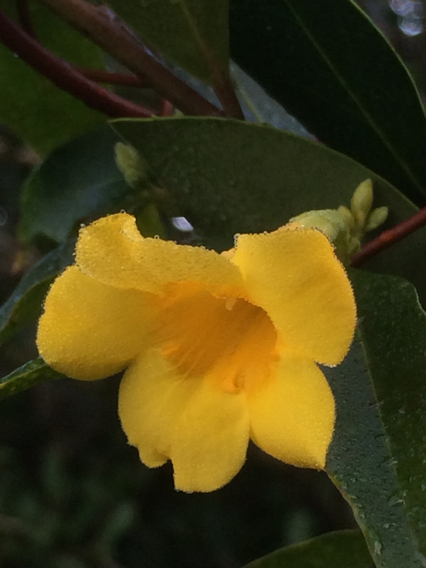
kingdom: Plantae
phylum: Tracheophyta
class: Magnoliopsida
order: Gentianales
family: Gelsemiaceae
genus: Gelsemium
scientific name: Gelsemium sempervirens
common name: Carolina-jasmine
